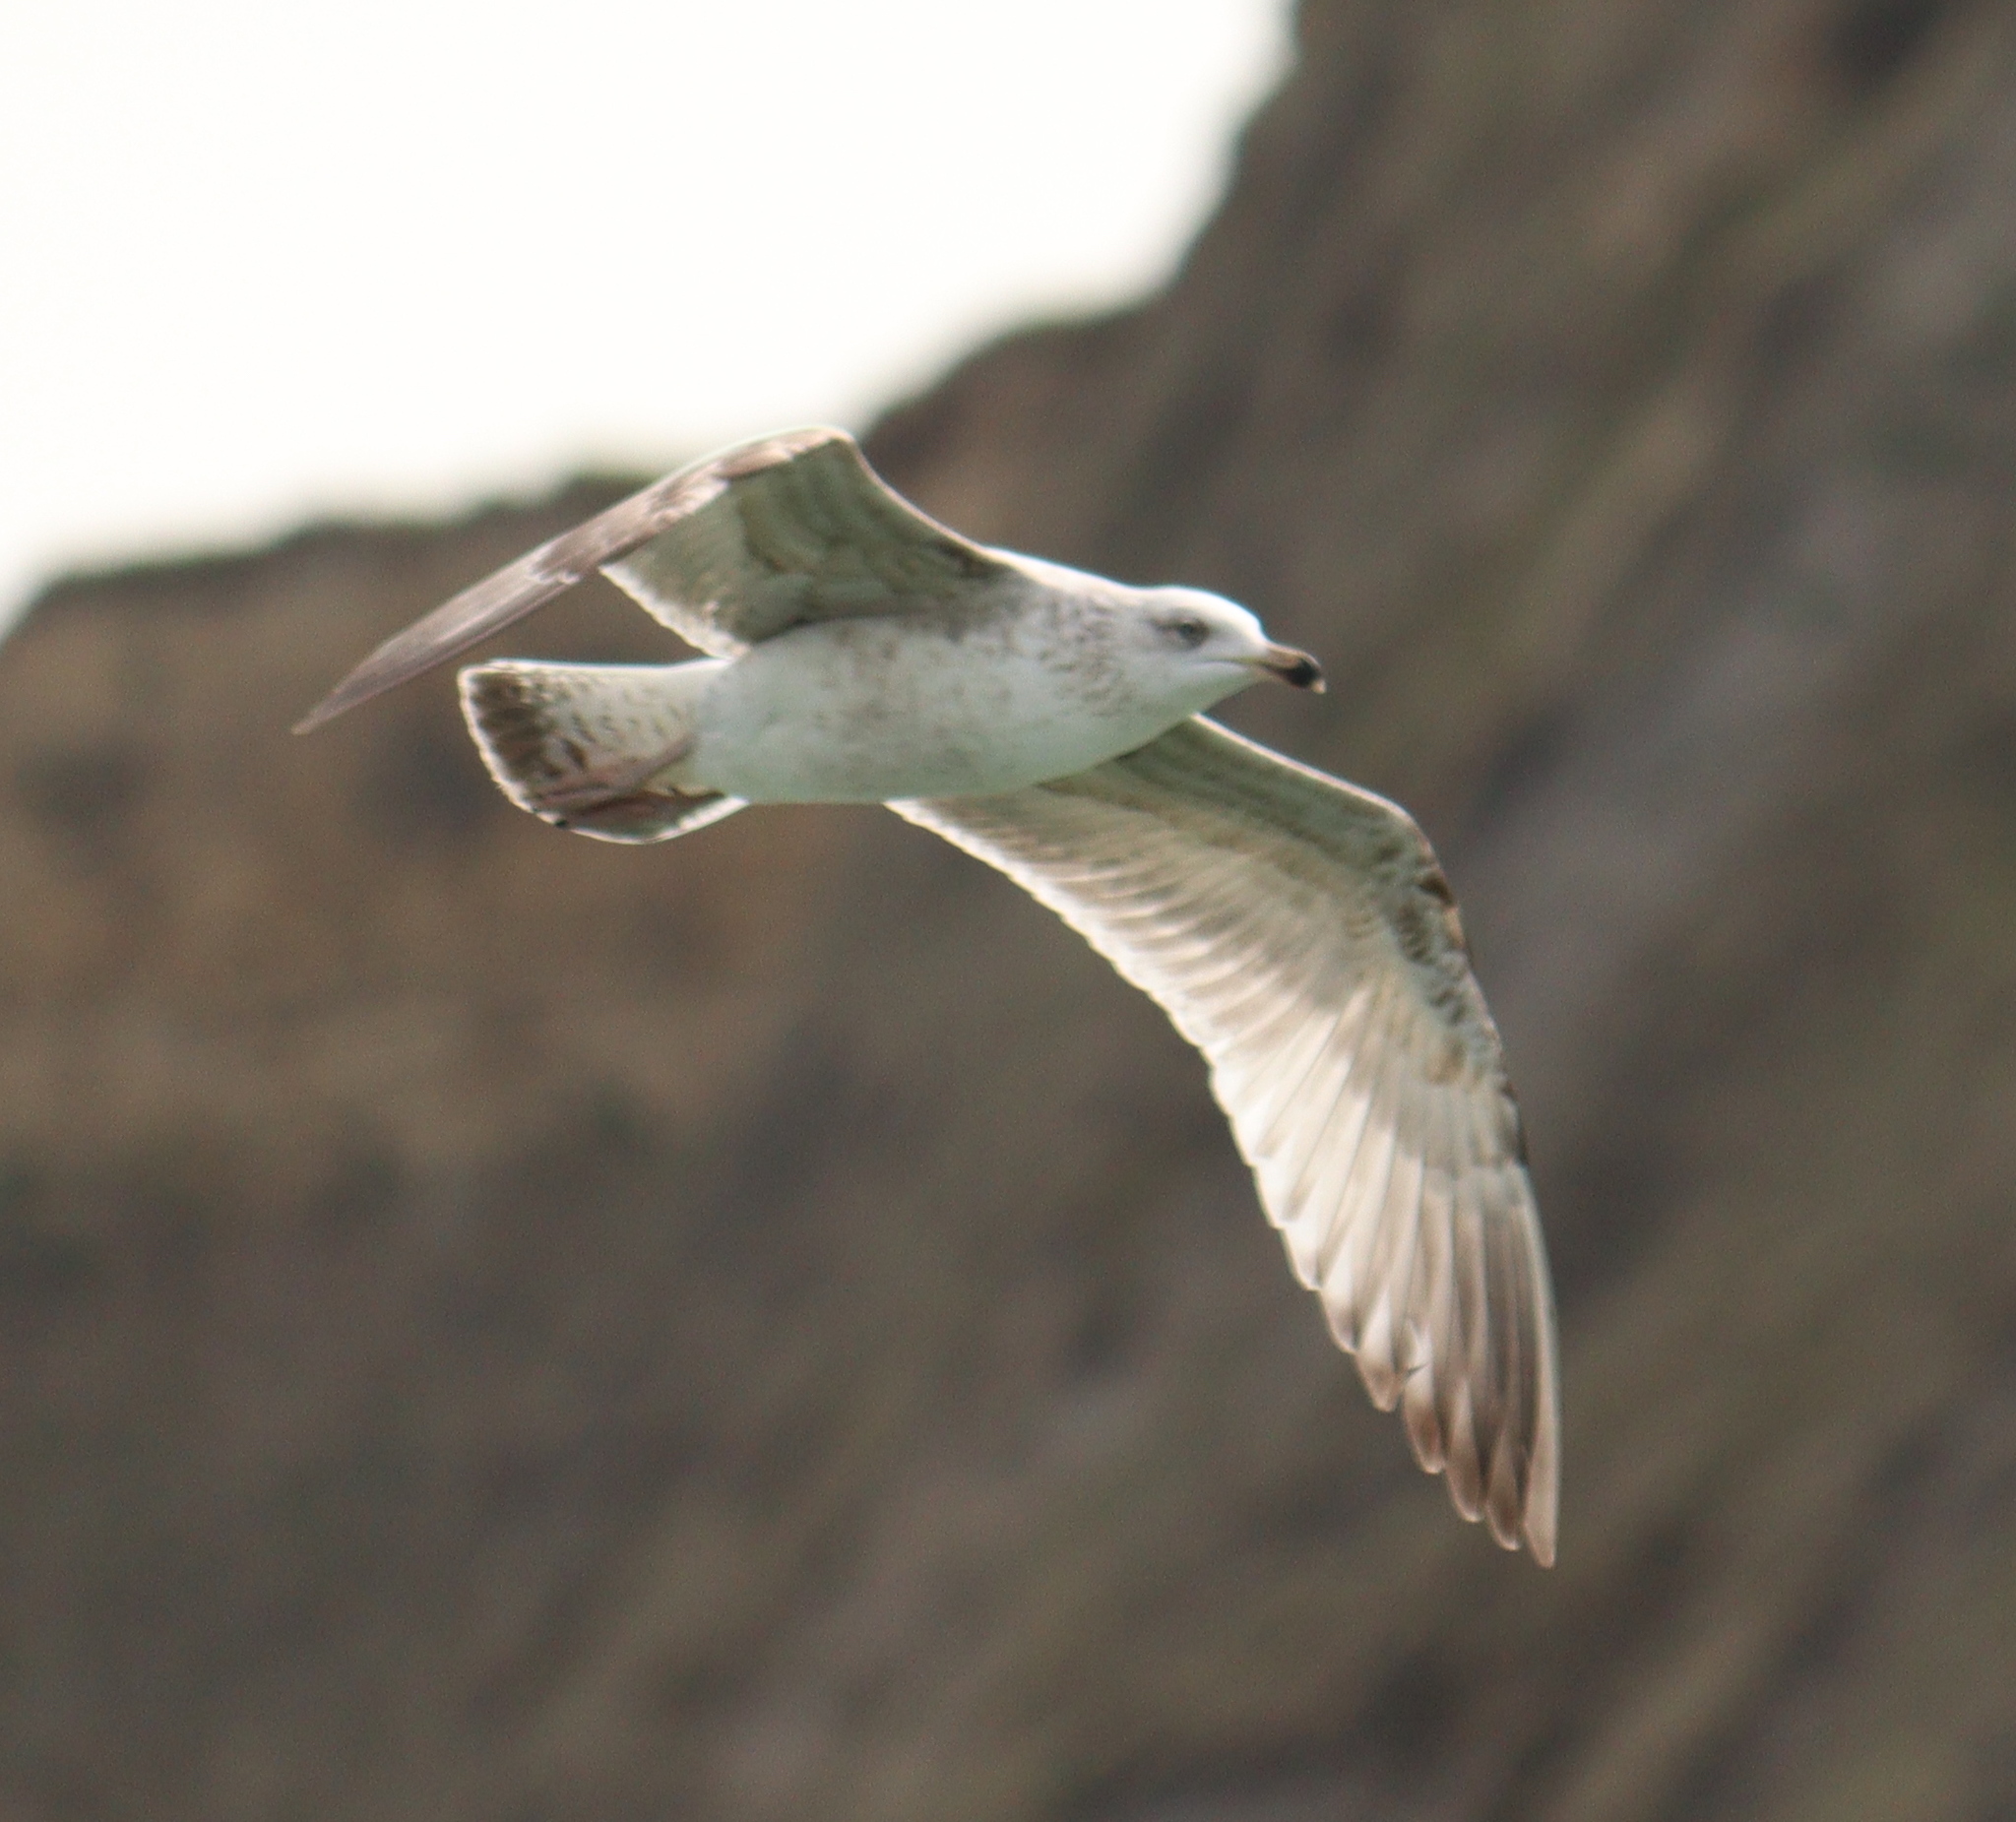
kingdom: Animalia
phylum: Chordata
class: Aves
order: Charadriiformes
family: Laridae
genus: Larus
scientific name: Larus argentatus
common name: Herring gull
